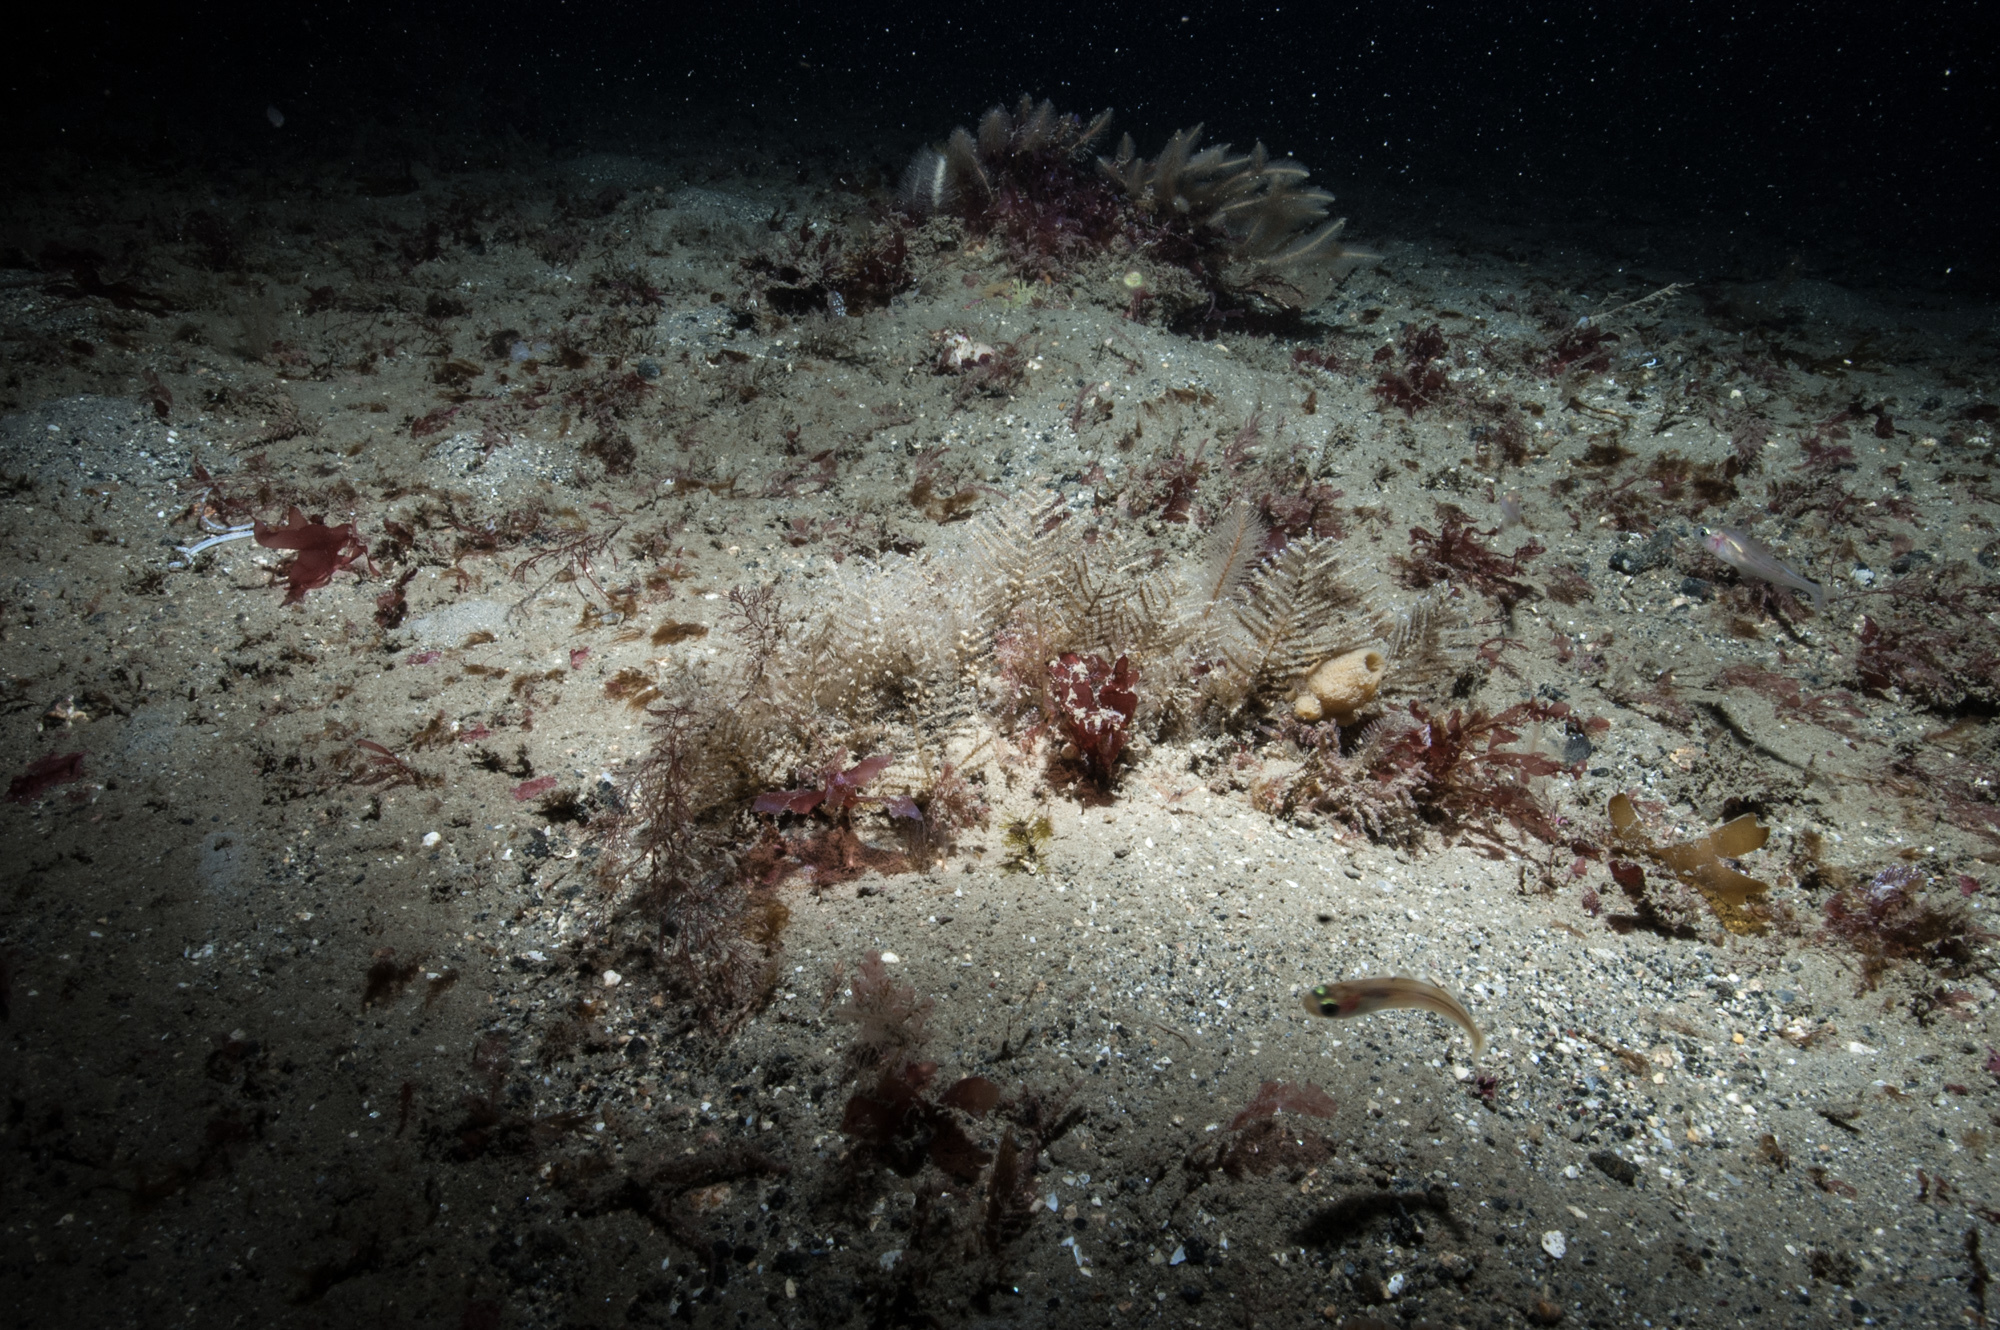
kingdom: Animalia
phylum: Cnidaria
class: Hydrozoa
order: Leptothecata
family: Sertulariidae
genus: Diphasia
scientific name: Diphasia margareta
